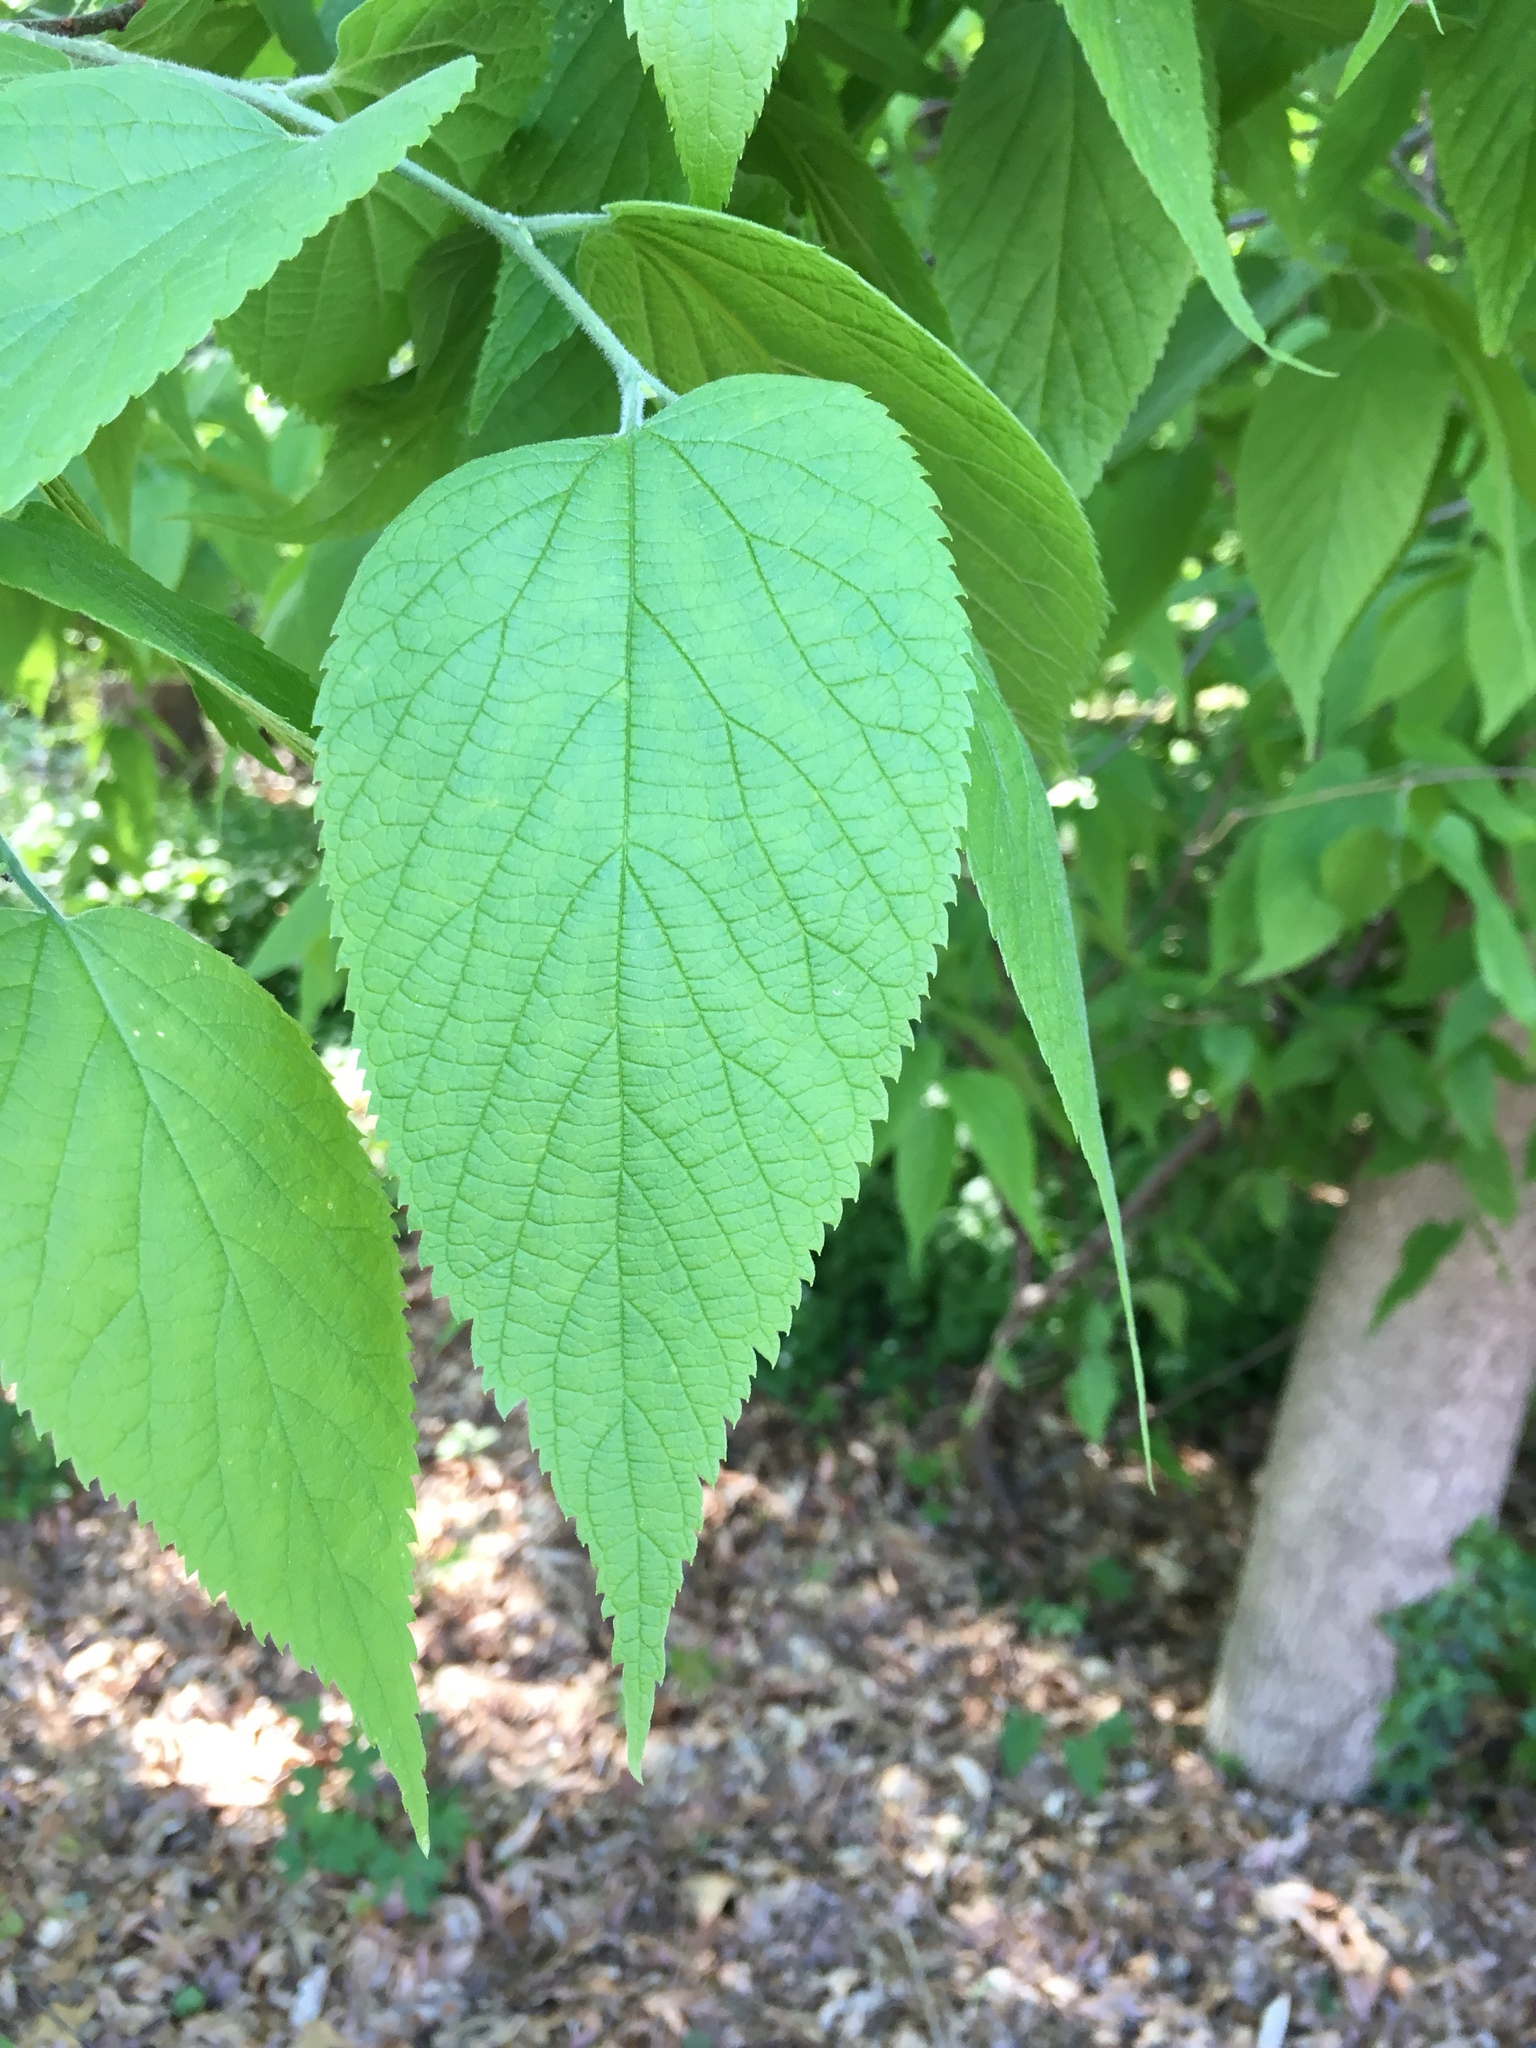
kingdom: Plantae
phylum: Tracheophyta
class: Magnoliopsida
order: Rosales
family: Cannabaceae
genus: Celtis
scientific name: Celtis occidentalis
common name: Common hackberry
